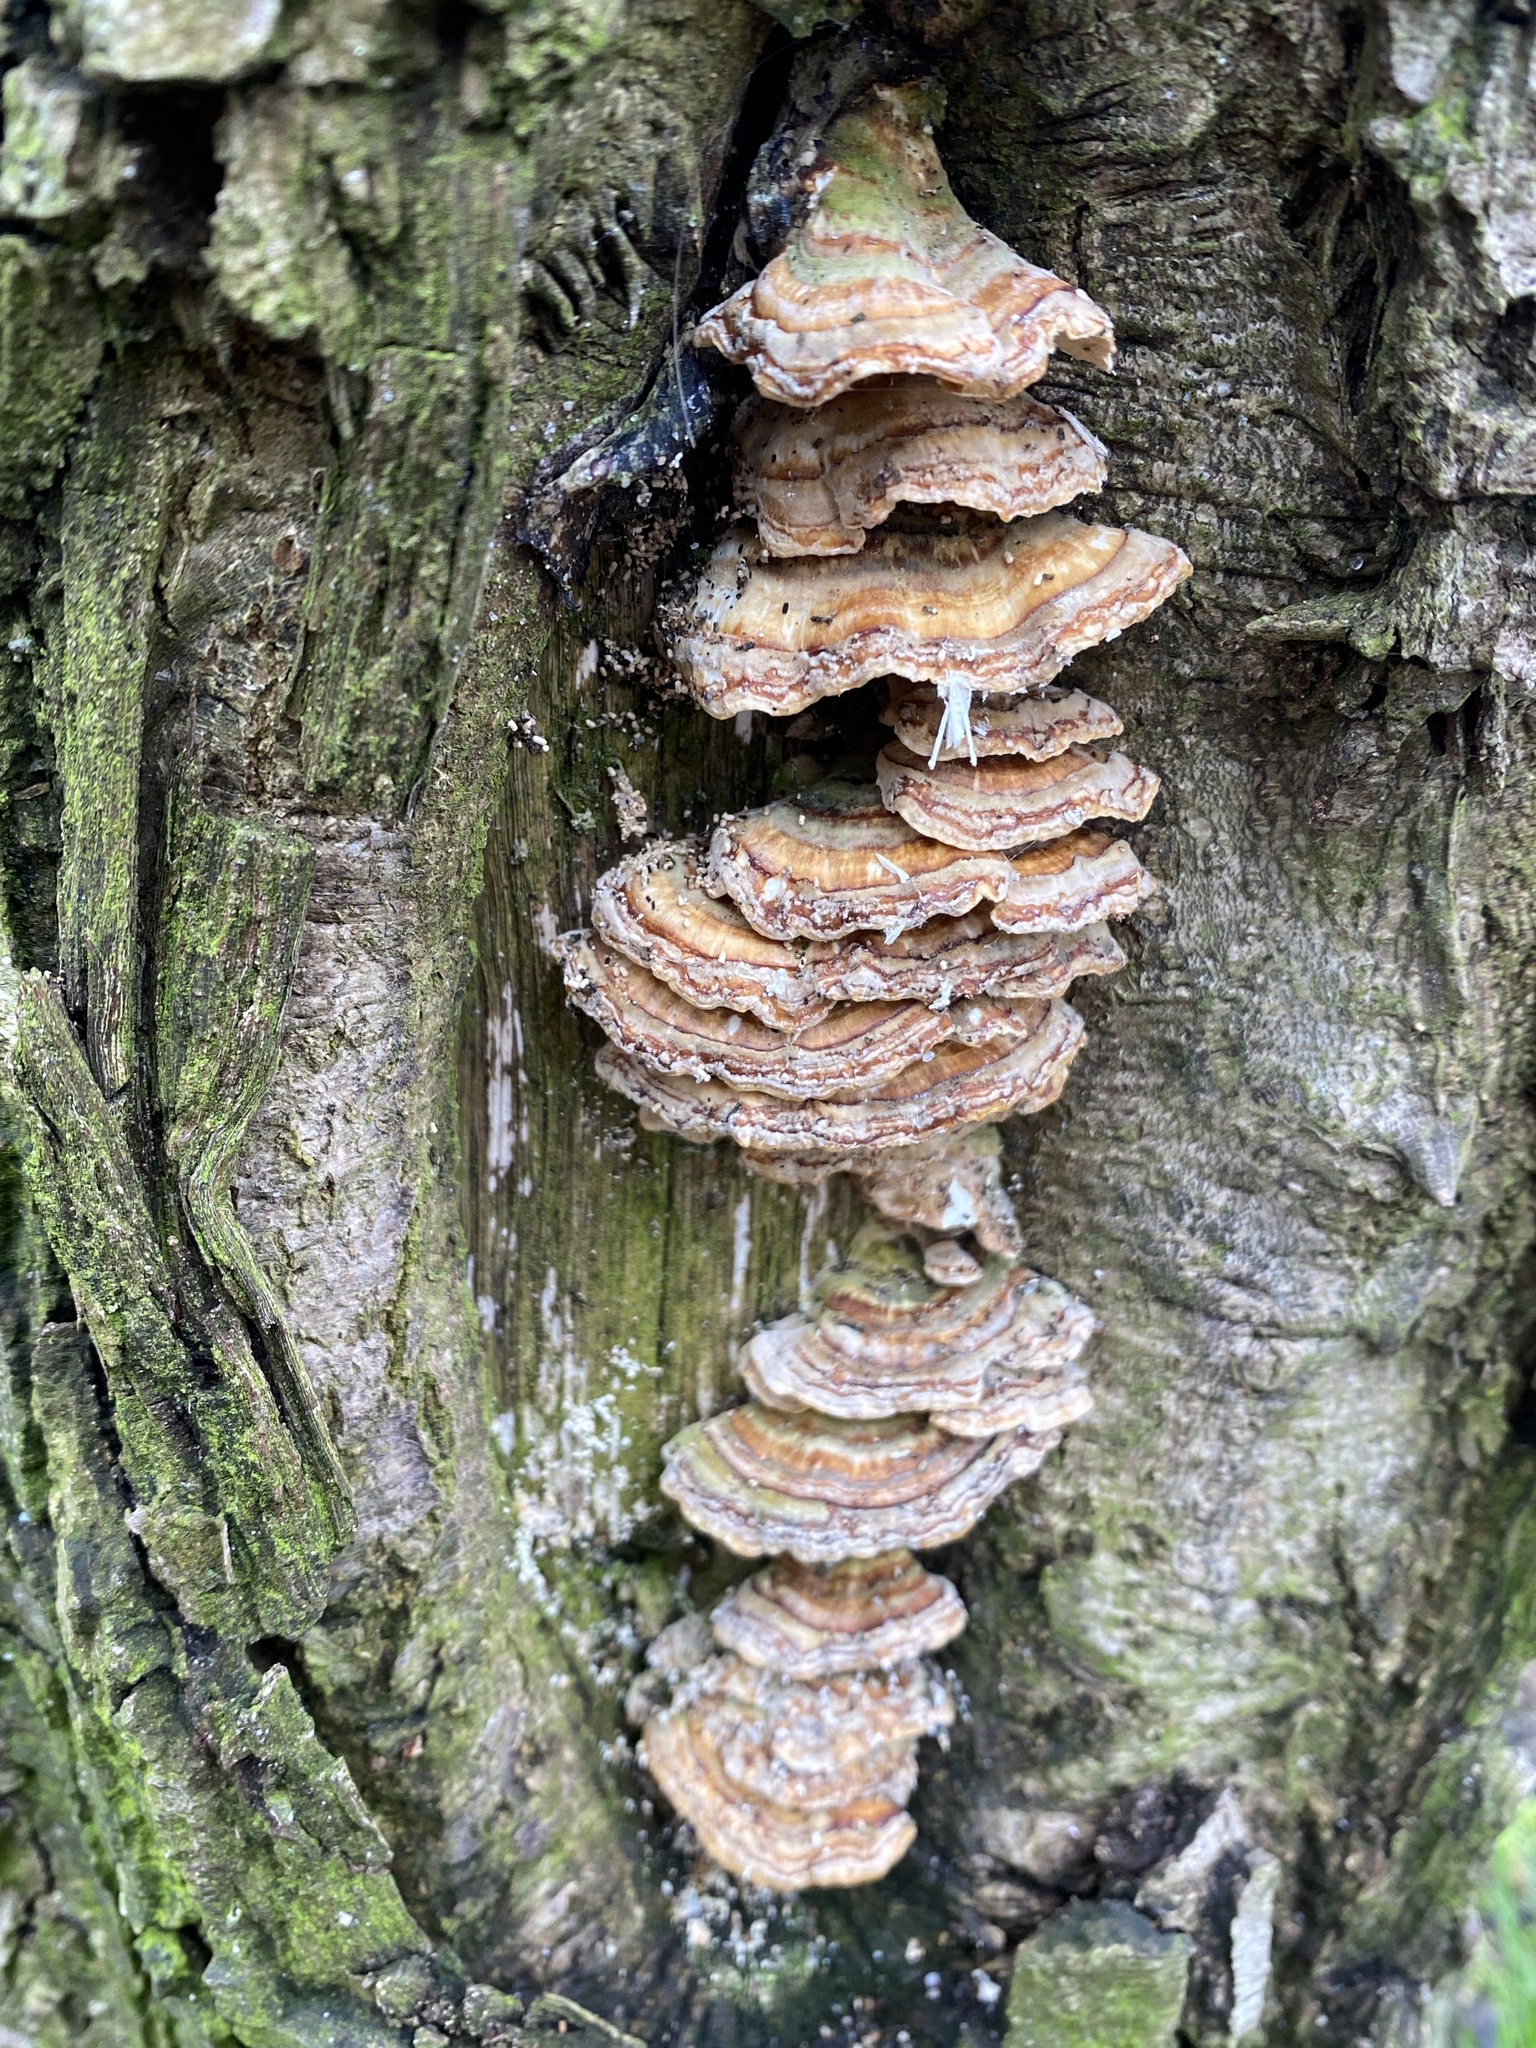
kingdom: Fungi
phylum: Basidiomycota
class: Agaricomycetes
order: Polyporales
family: Polyporaceae
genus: Trametes
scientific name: Trametes versicolor
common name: Turkeytail
